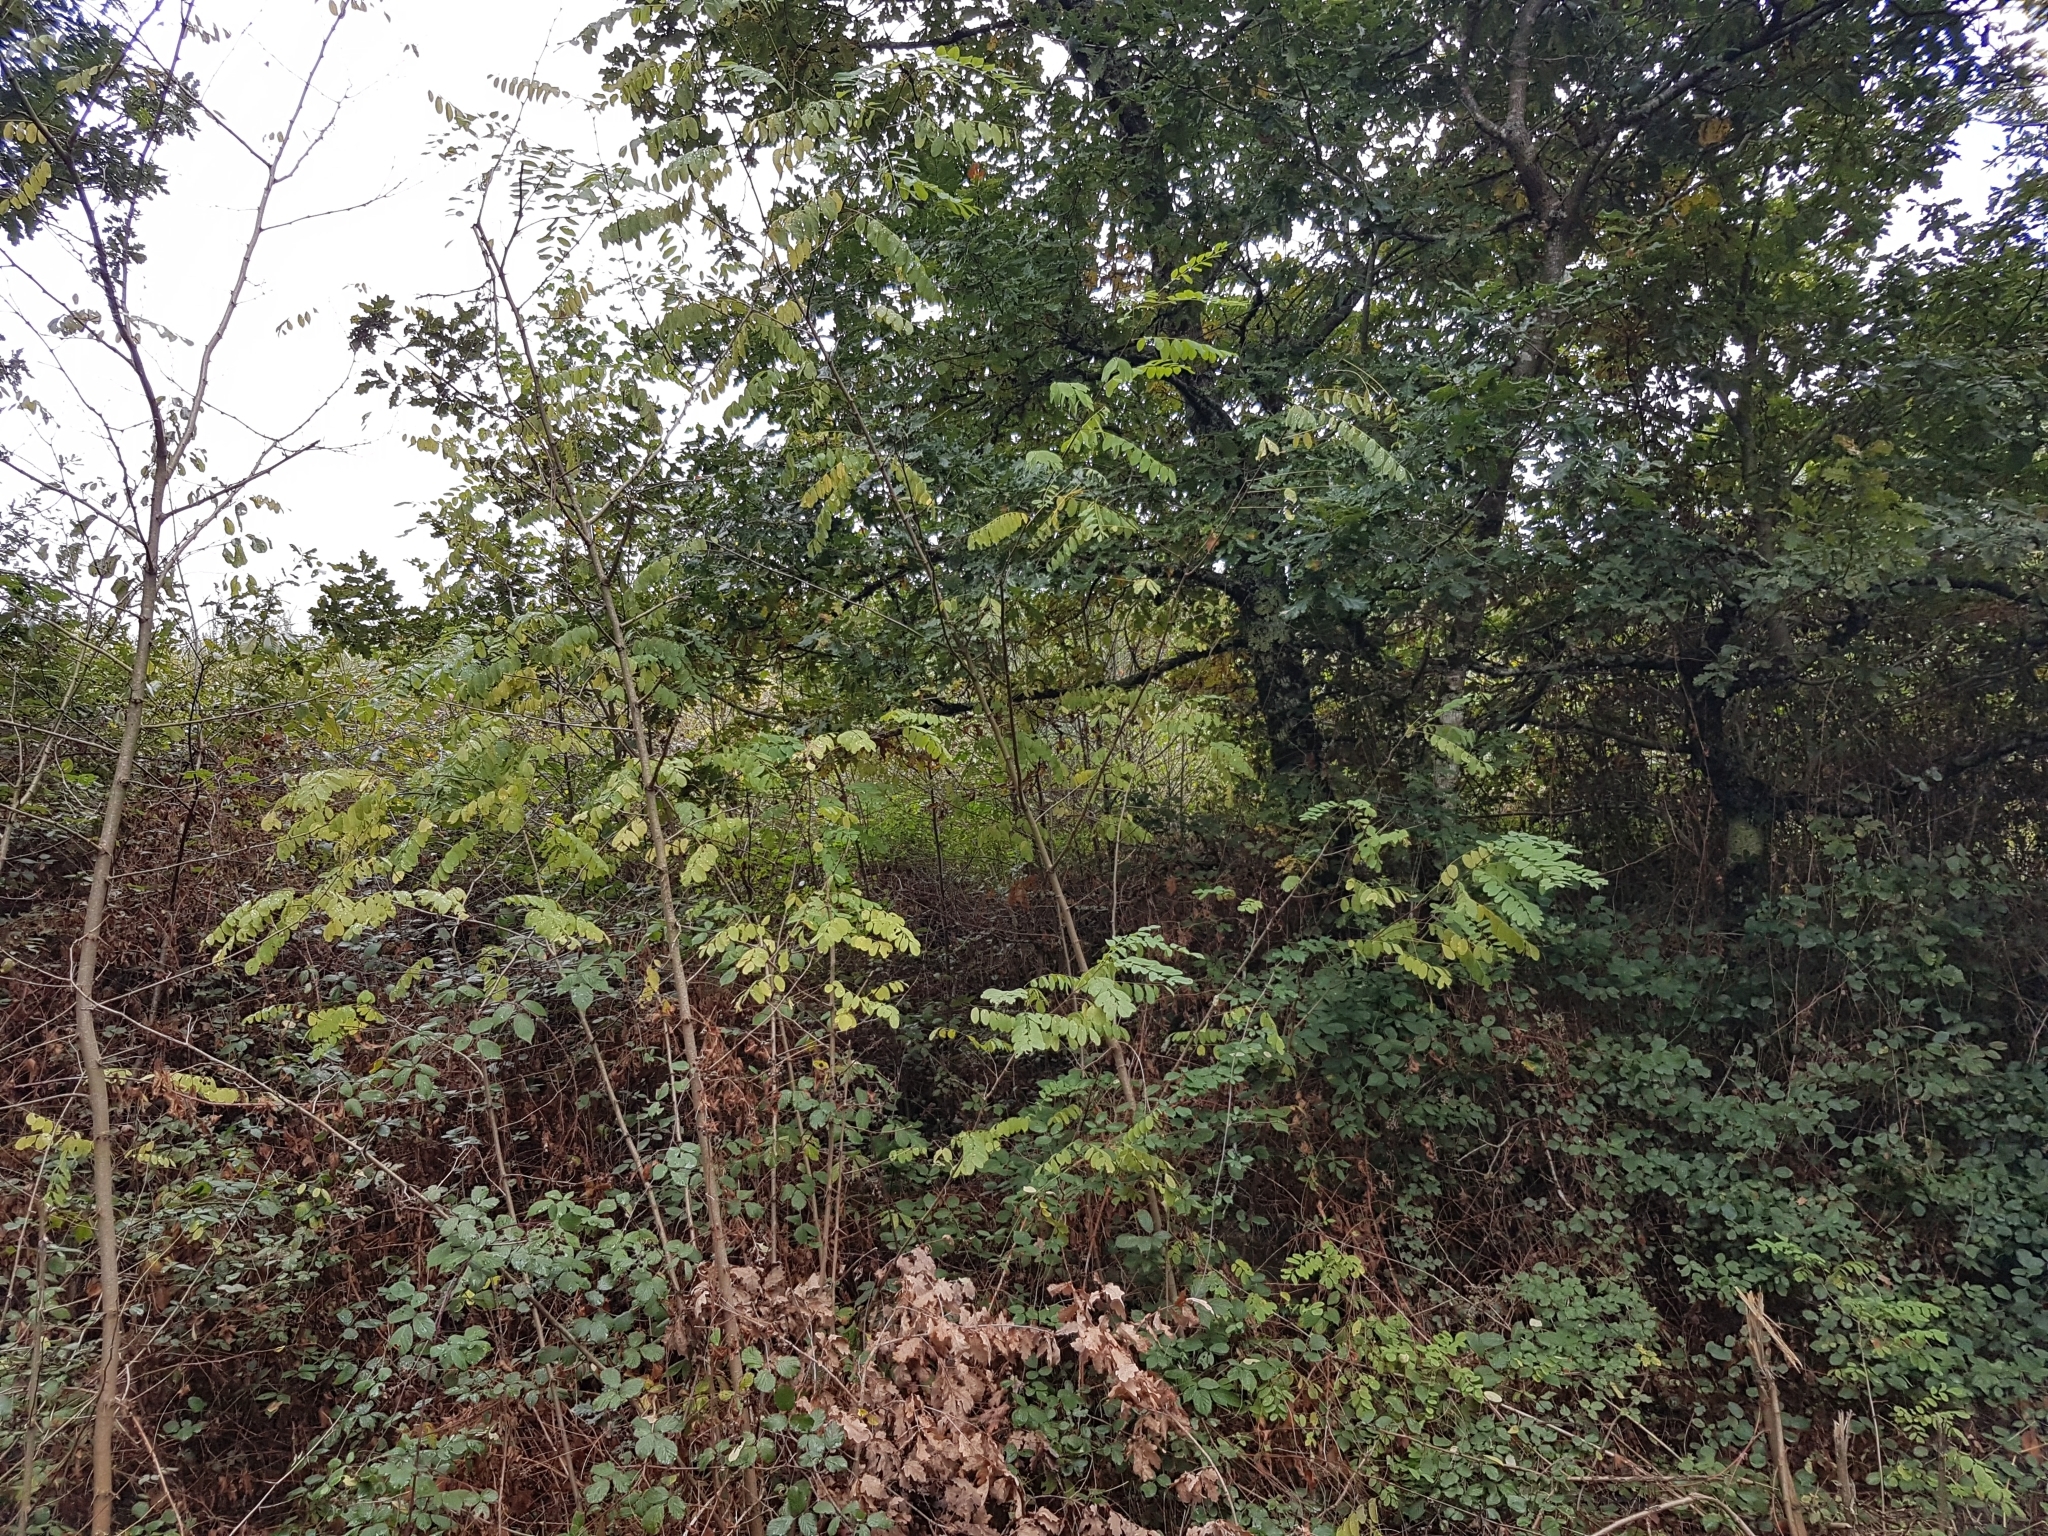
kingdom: Plantae
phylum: Tracheophyta
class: Magnoliopsida
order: Fabales
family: Fabaceae
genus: Robinia
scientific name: Robinia pseudoacacia
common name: Black locust
